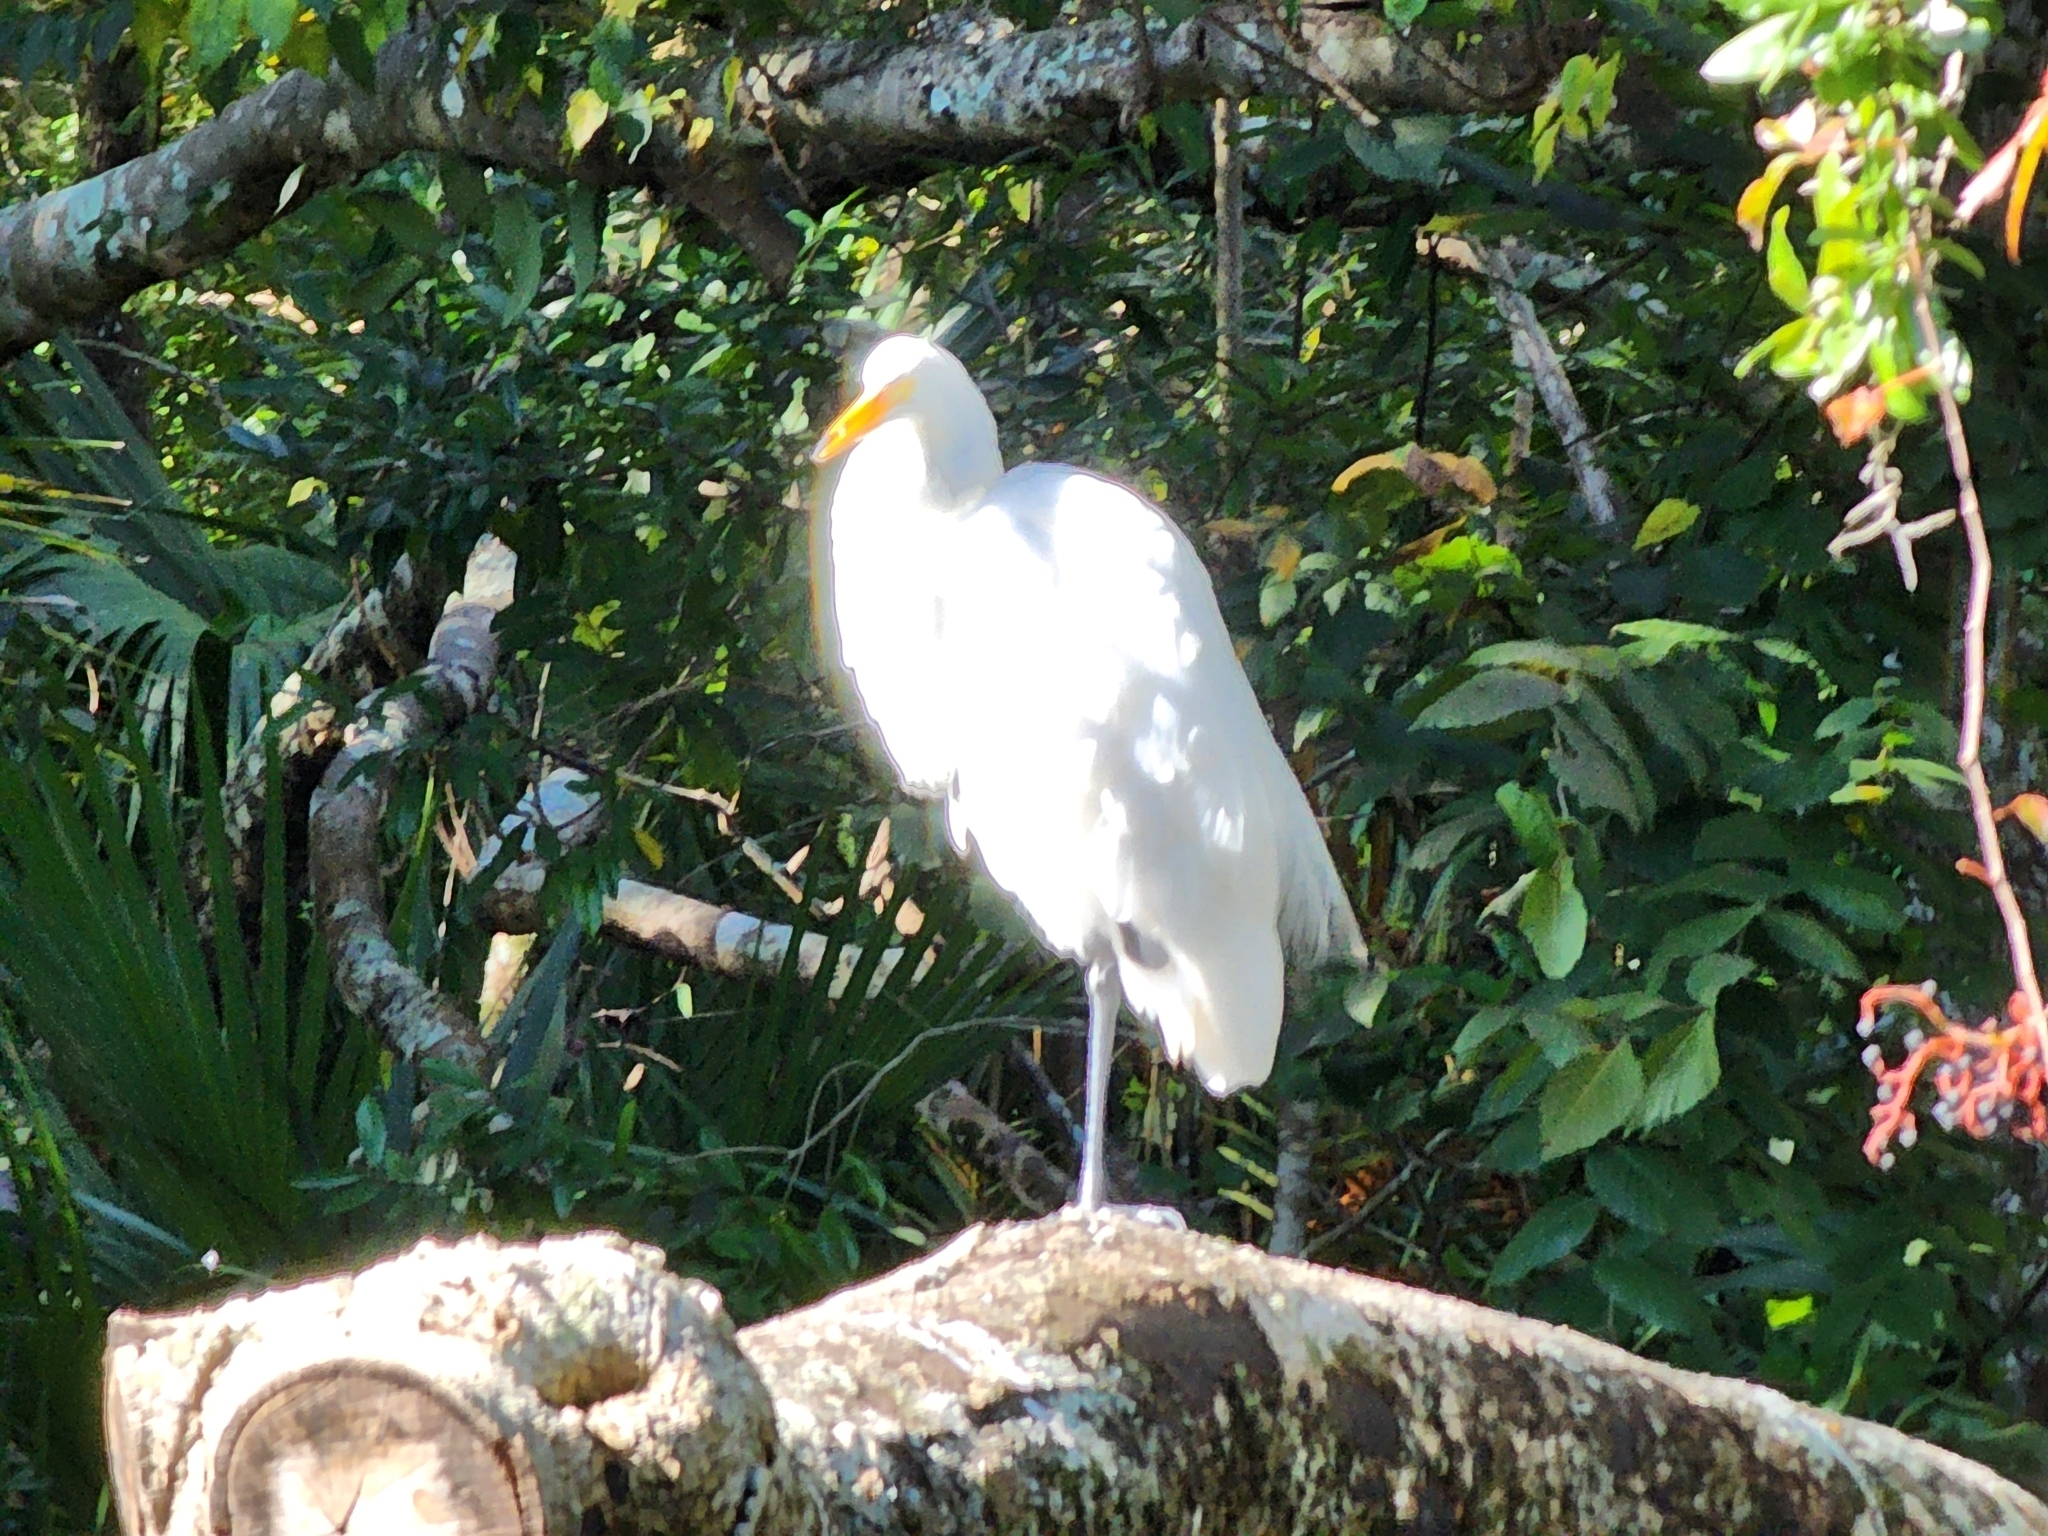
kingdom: Animalia
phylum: Chordata
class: Aves
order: Pelecaniformes
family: Ardeidae
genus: Ardea
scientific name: Ardea alba
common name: Great egret
